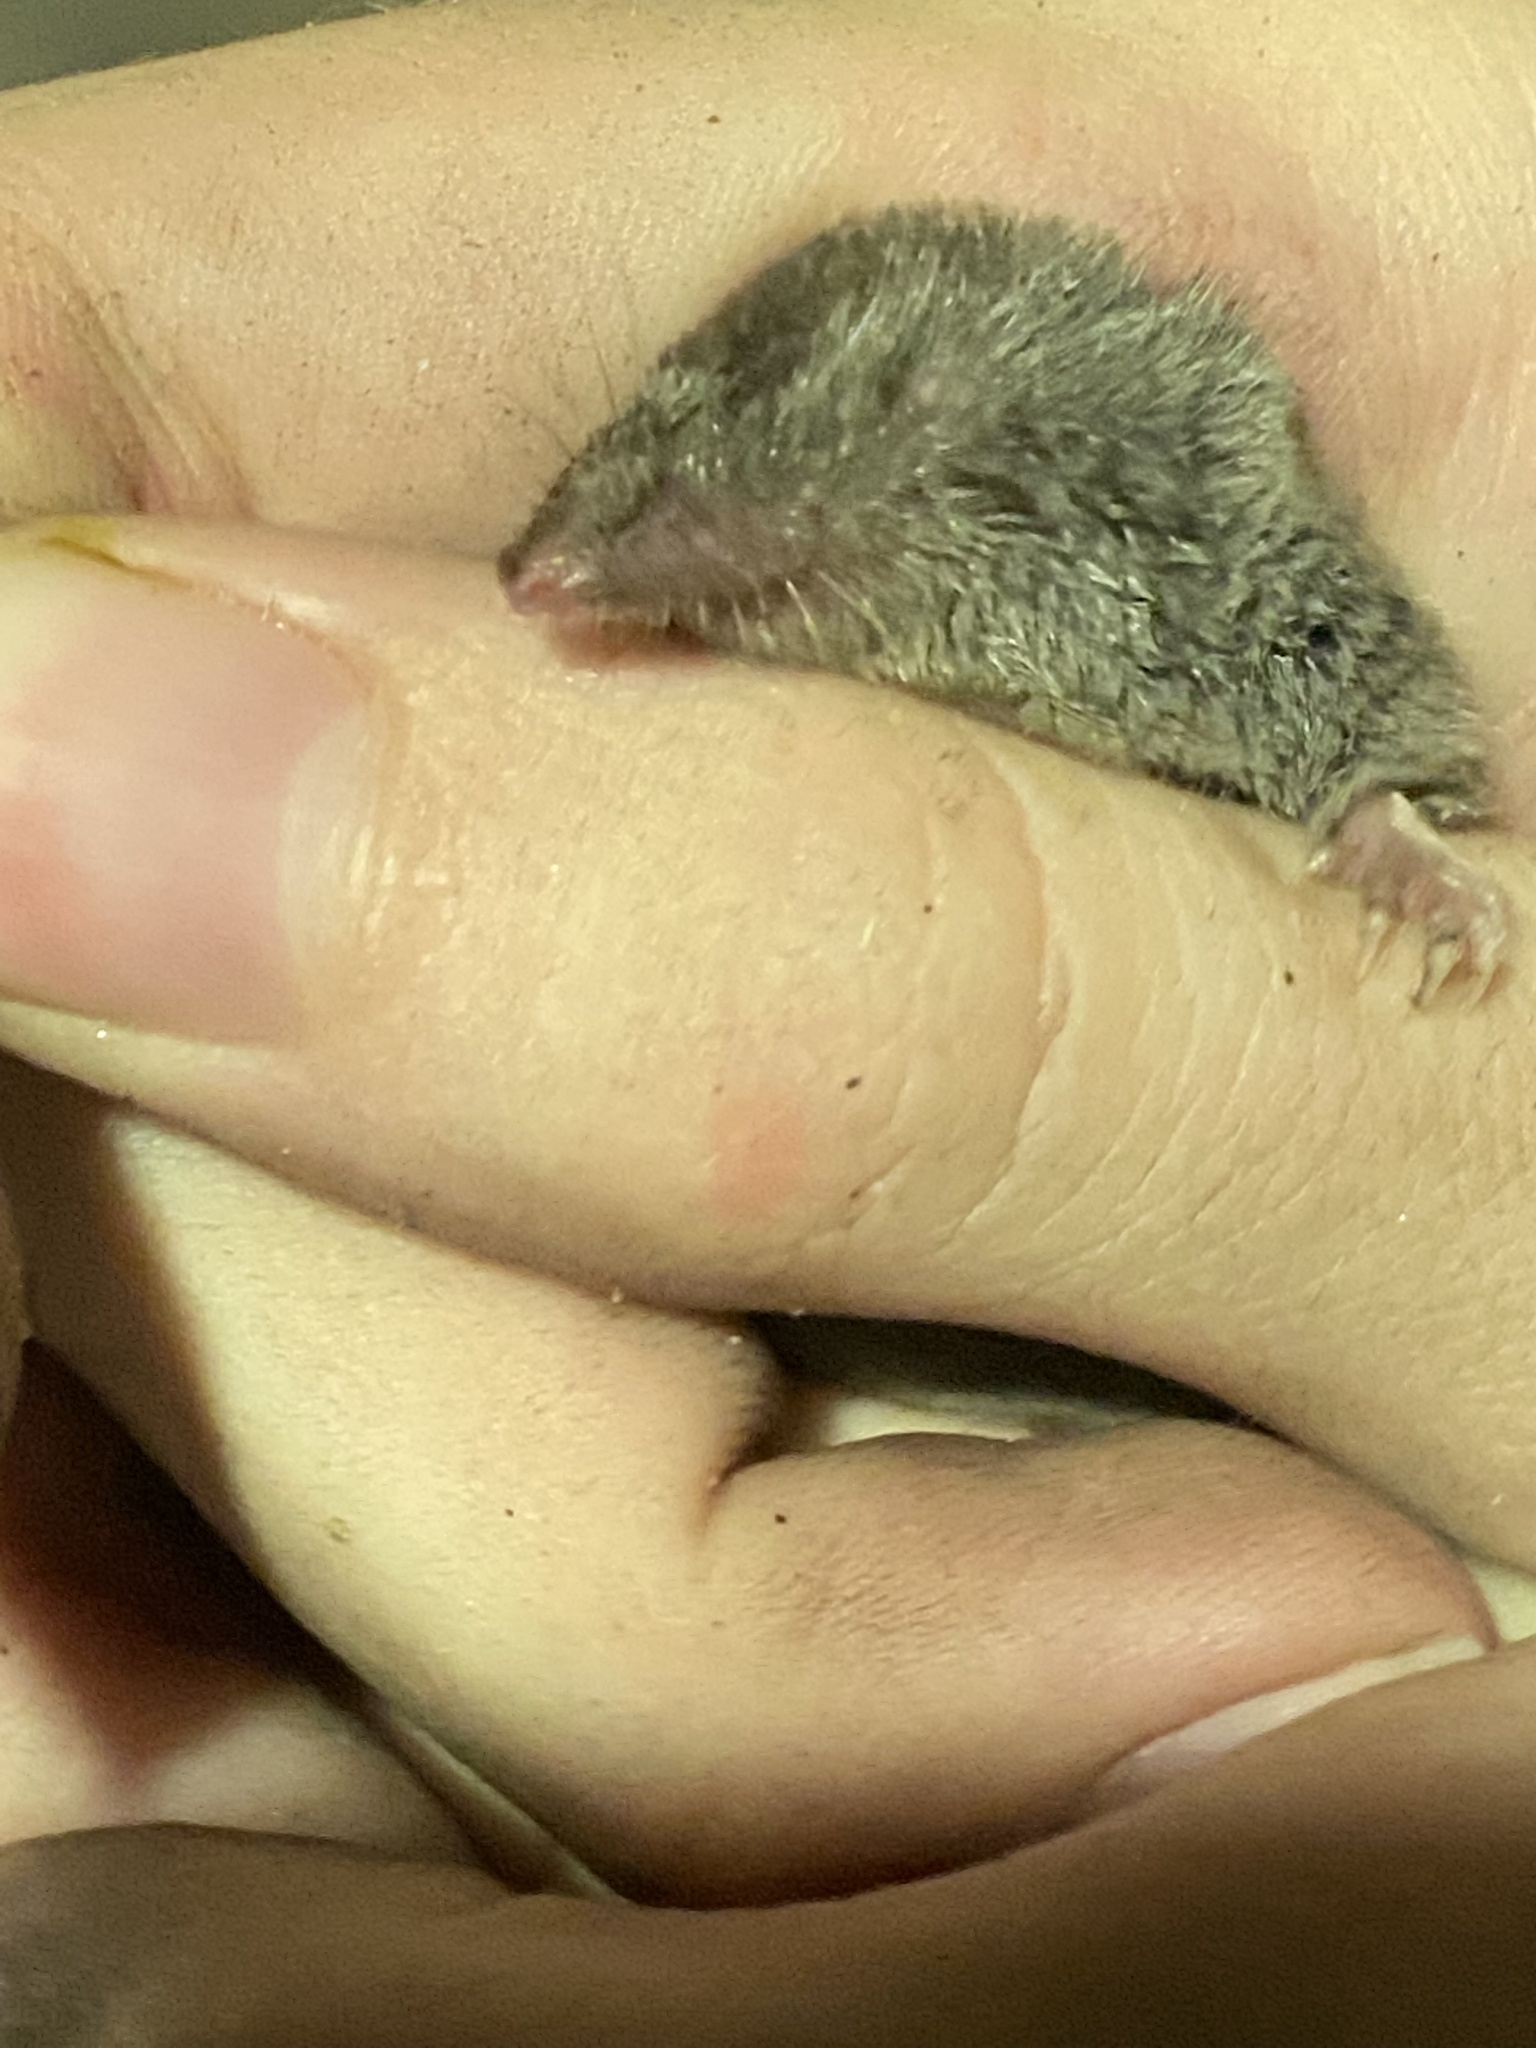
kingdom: Animalia
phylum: Chordata
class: Mammalia
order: Soricomorpha
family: Soricidae
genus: Cryptotis
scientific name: Cryptotis parva
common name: North american least shrew
